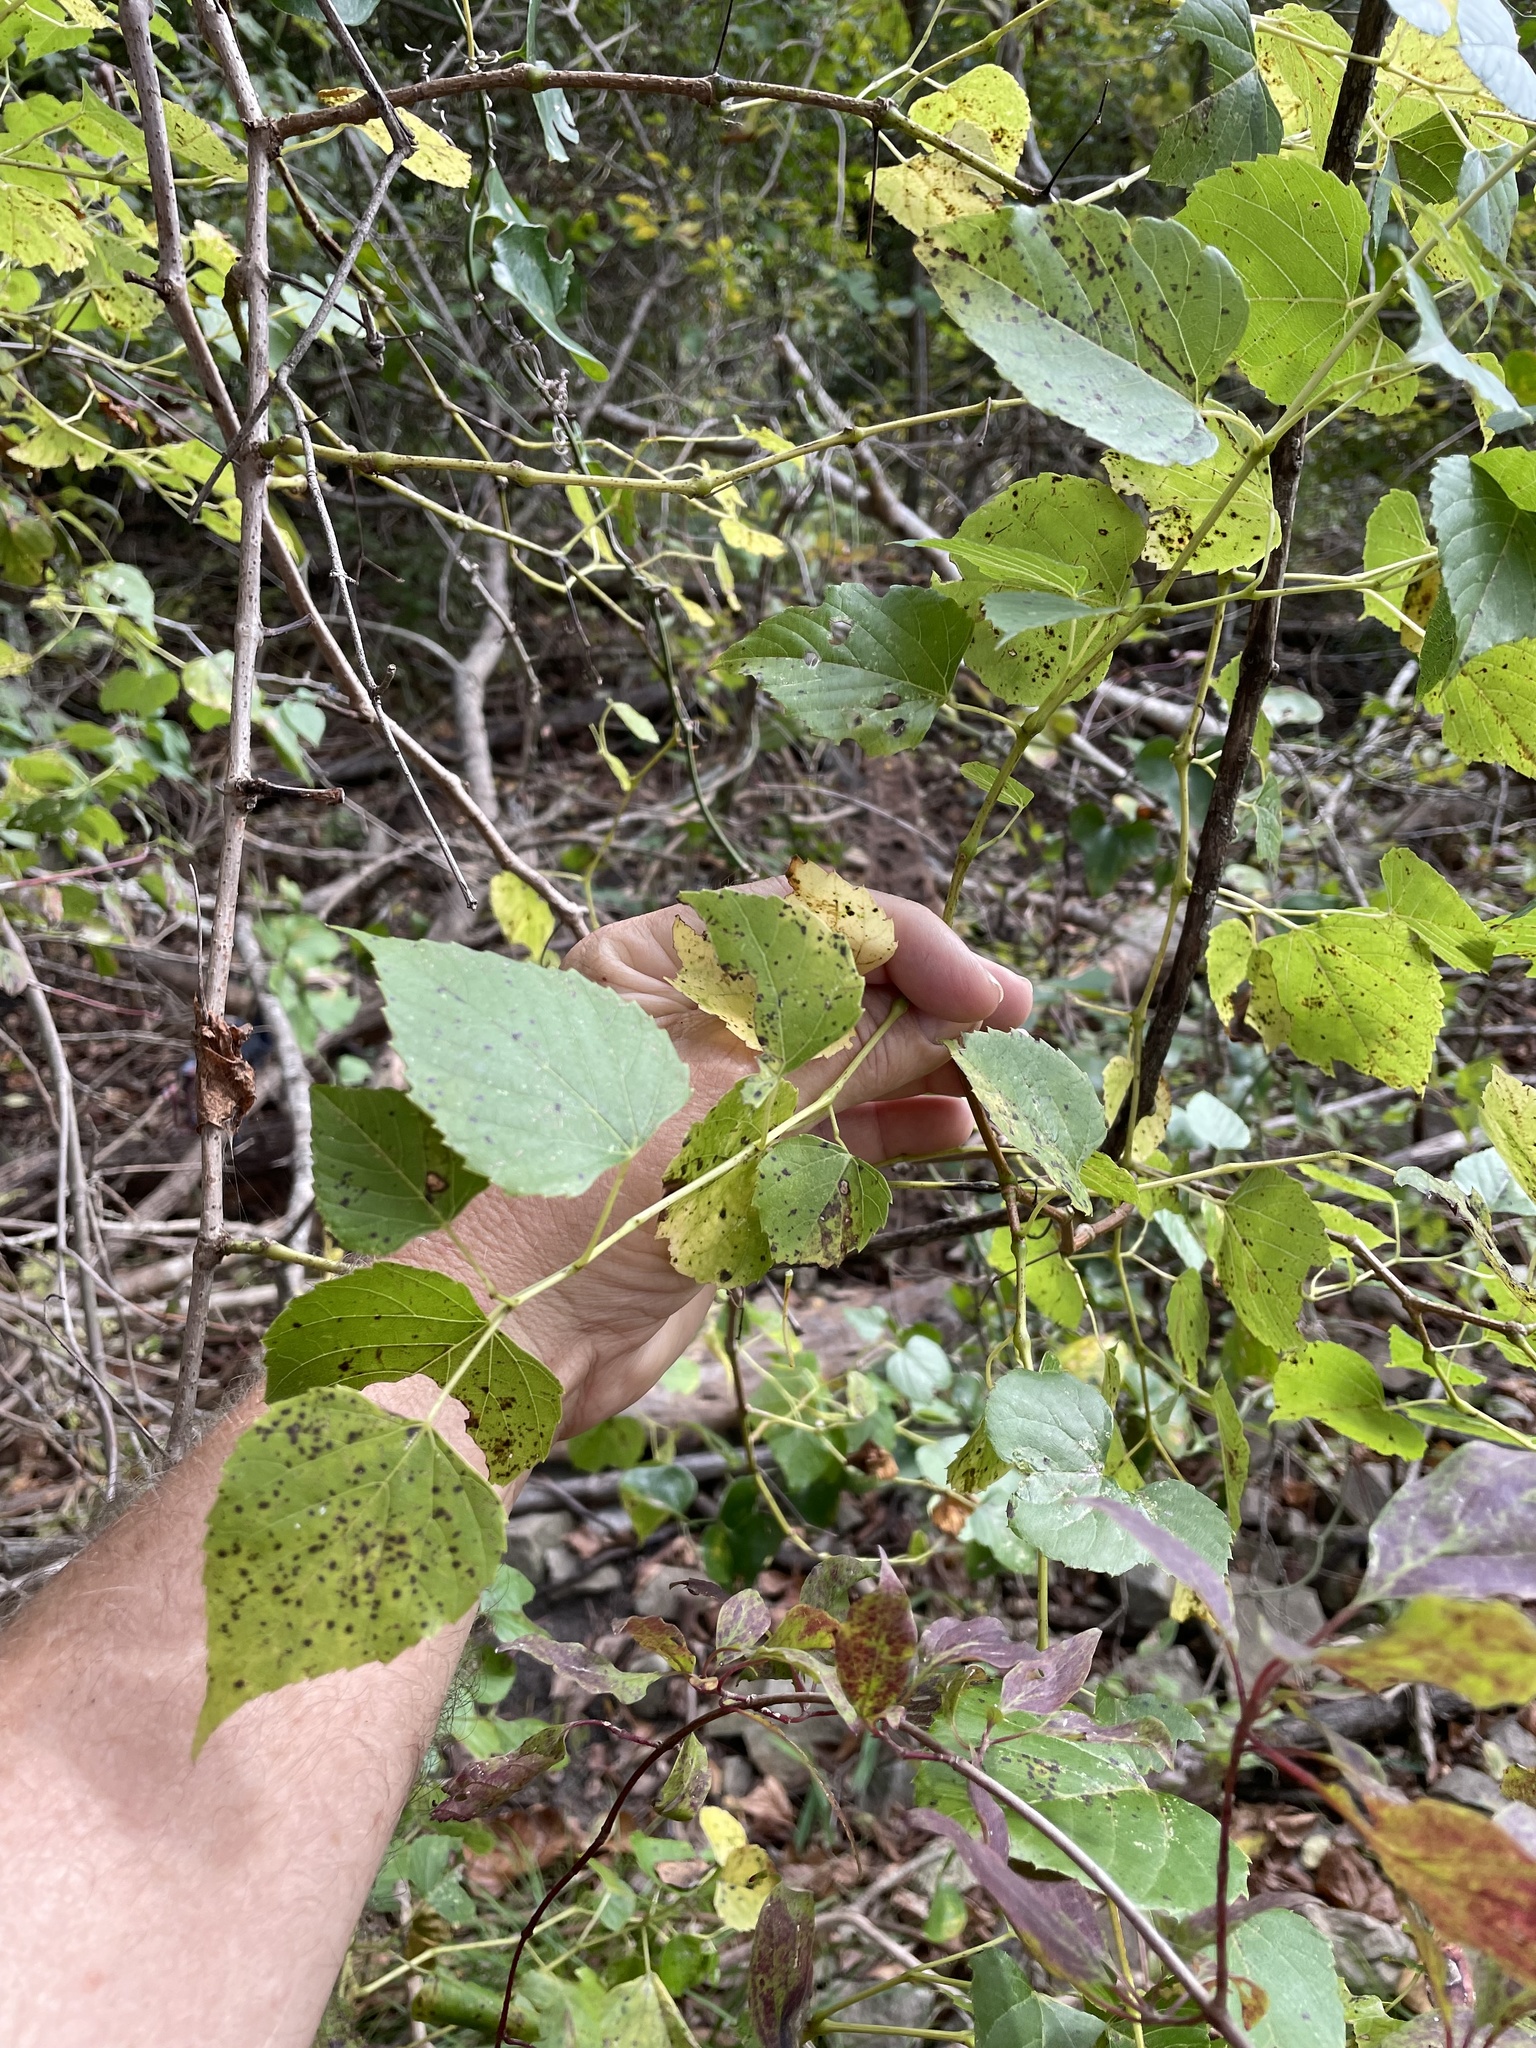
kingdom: Plantae
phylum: Tracheophyta
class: Magnoliopsida
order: Vitales
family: Vitaceae
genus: Ampelopsis
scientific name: Ampelopsis cordata
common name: Heart-leaf ampelopsis
